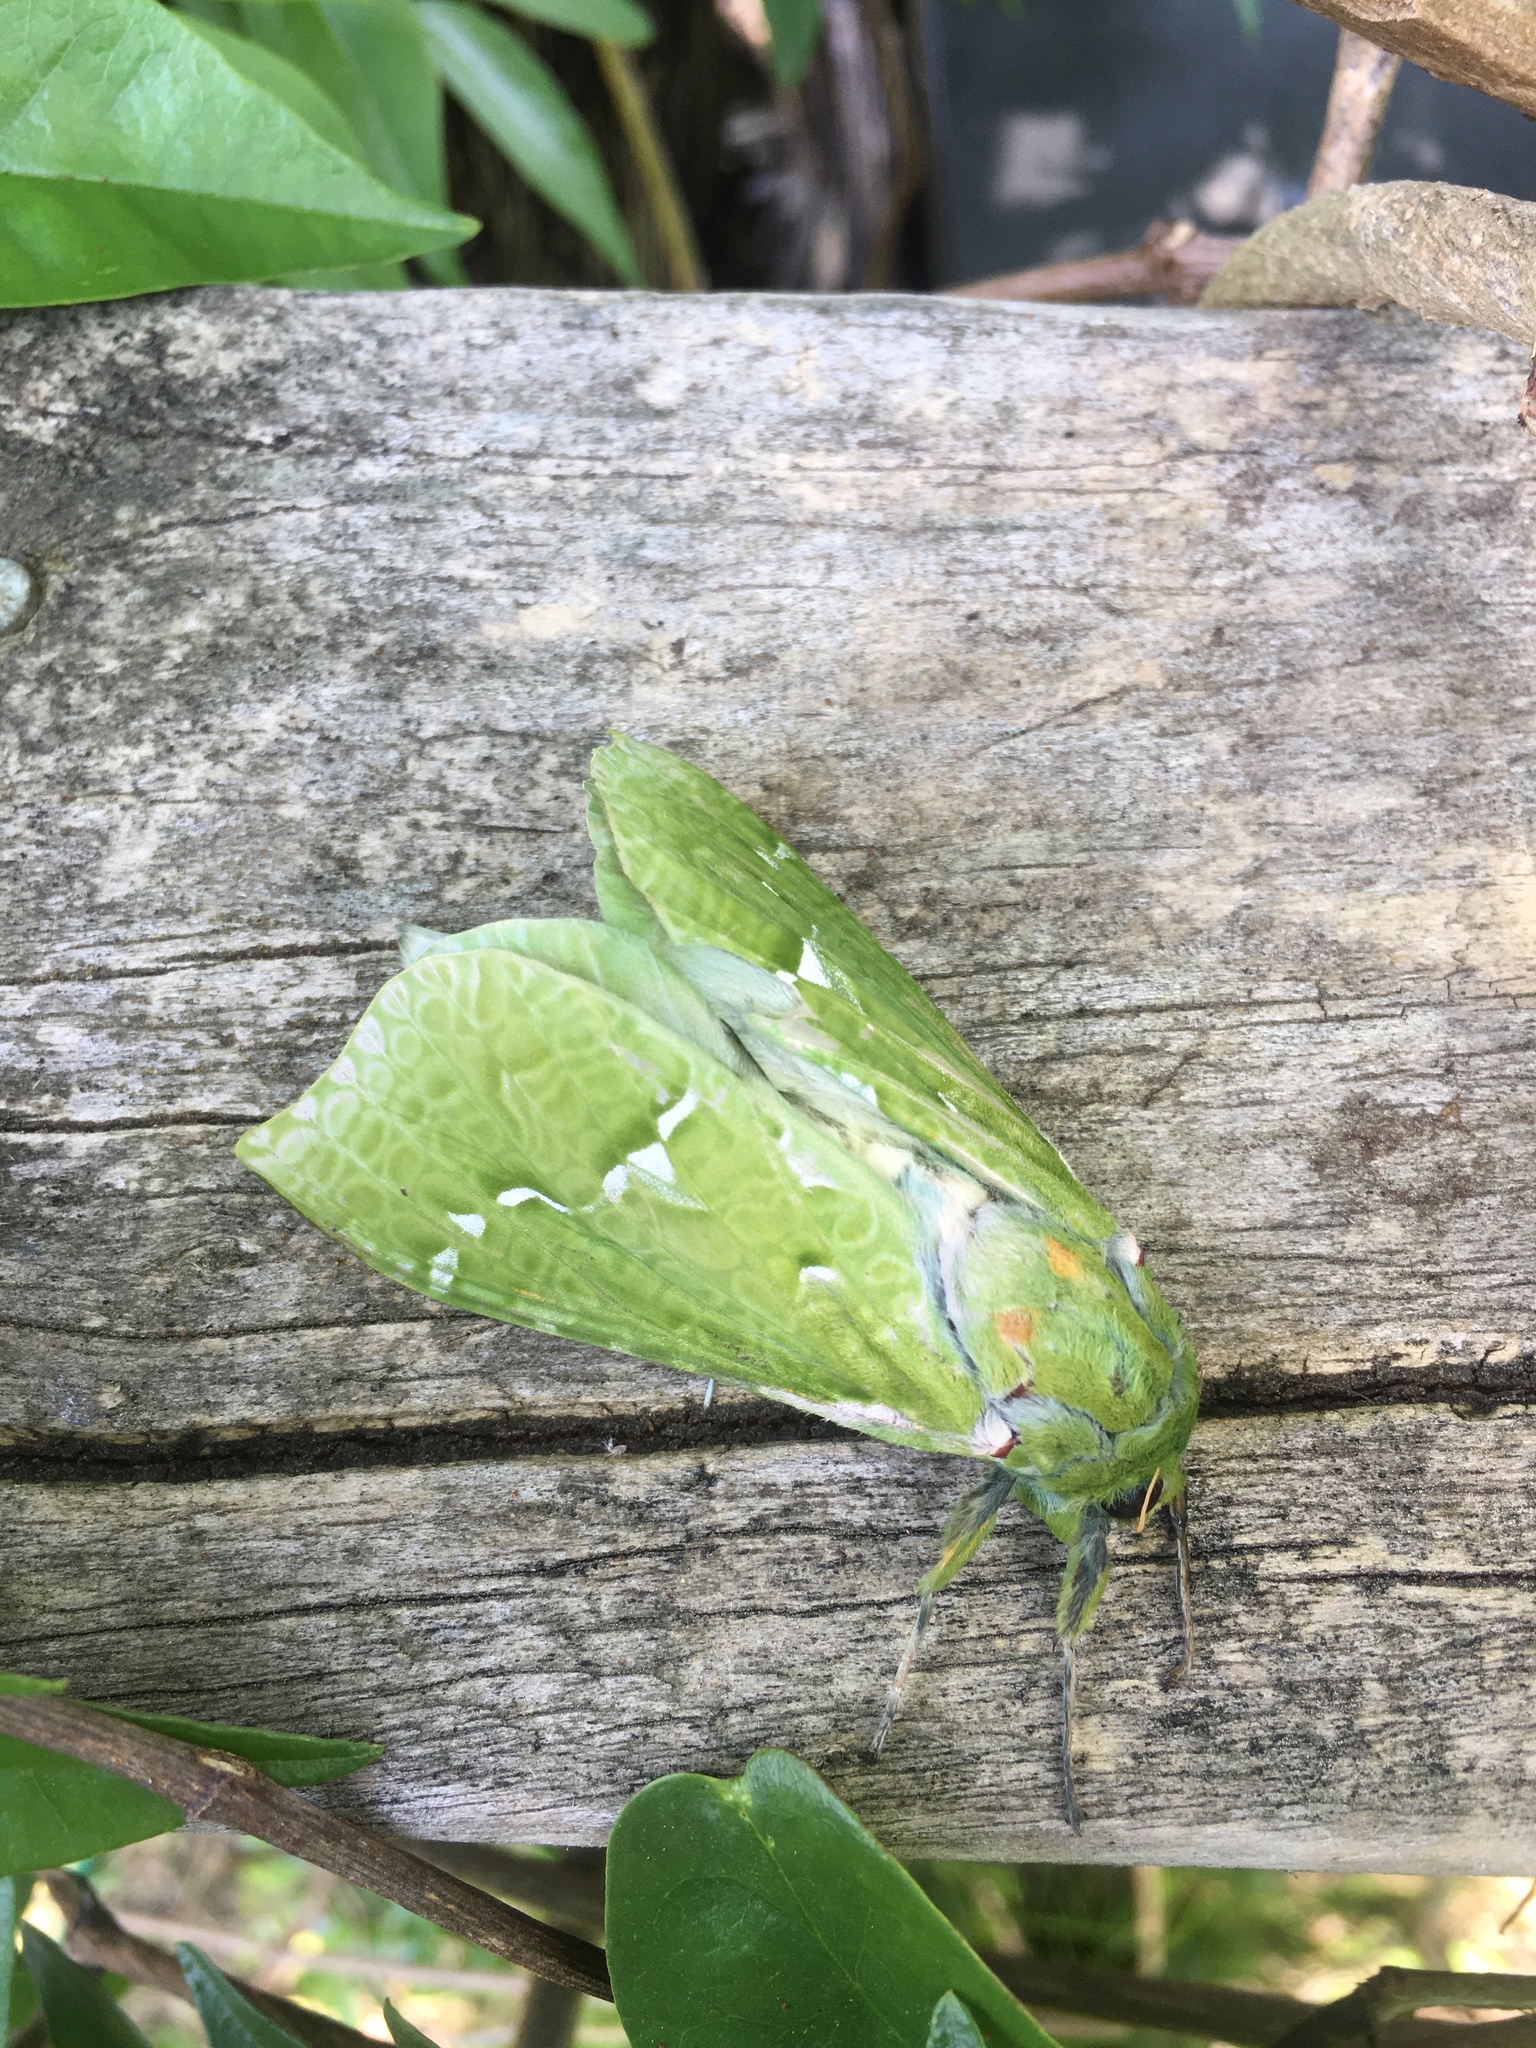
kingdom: Animalia
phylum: Arthropoda
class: Insecta
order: Lepidoptera
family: Hepialidae
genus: Aenetus
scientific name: Aenetus virescens
